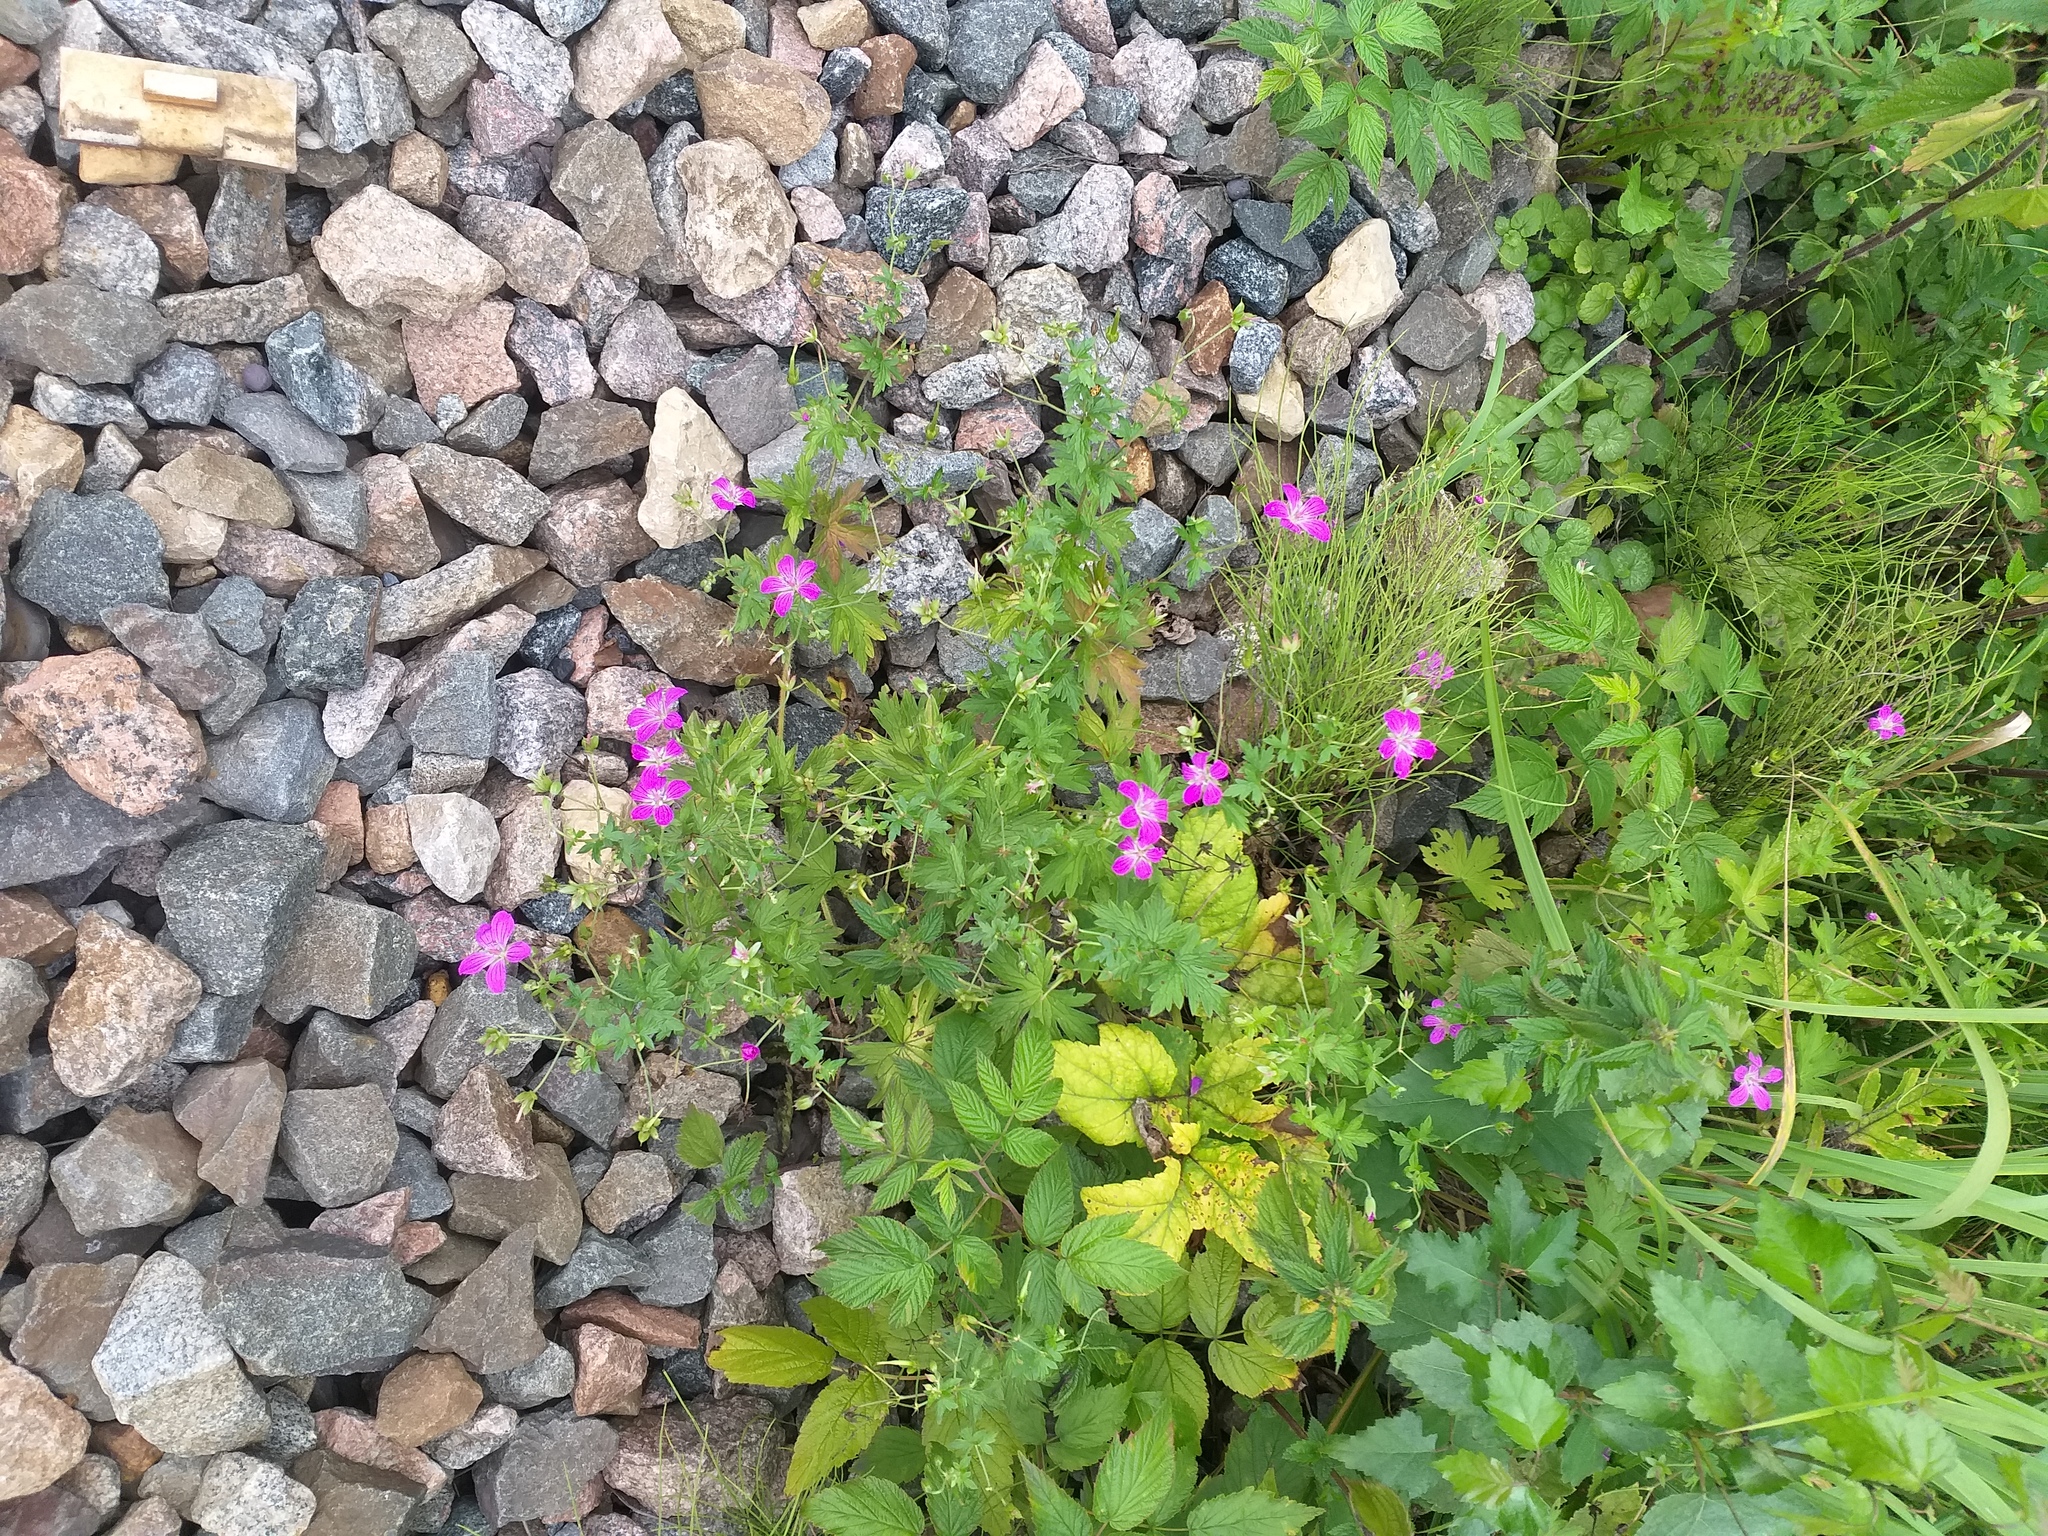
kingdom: Plantae
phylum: Tracheophyta
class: Magnoliopsida
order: Geraniales
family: Geraniaceae
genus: Geranium
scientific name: Geranium palustre
